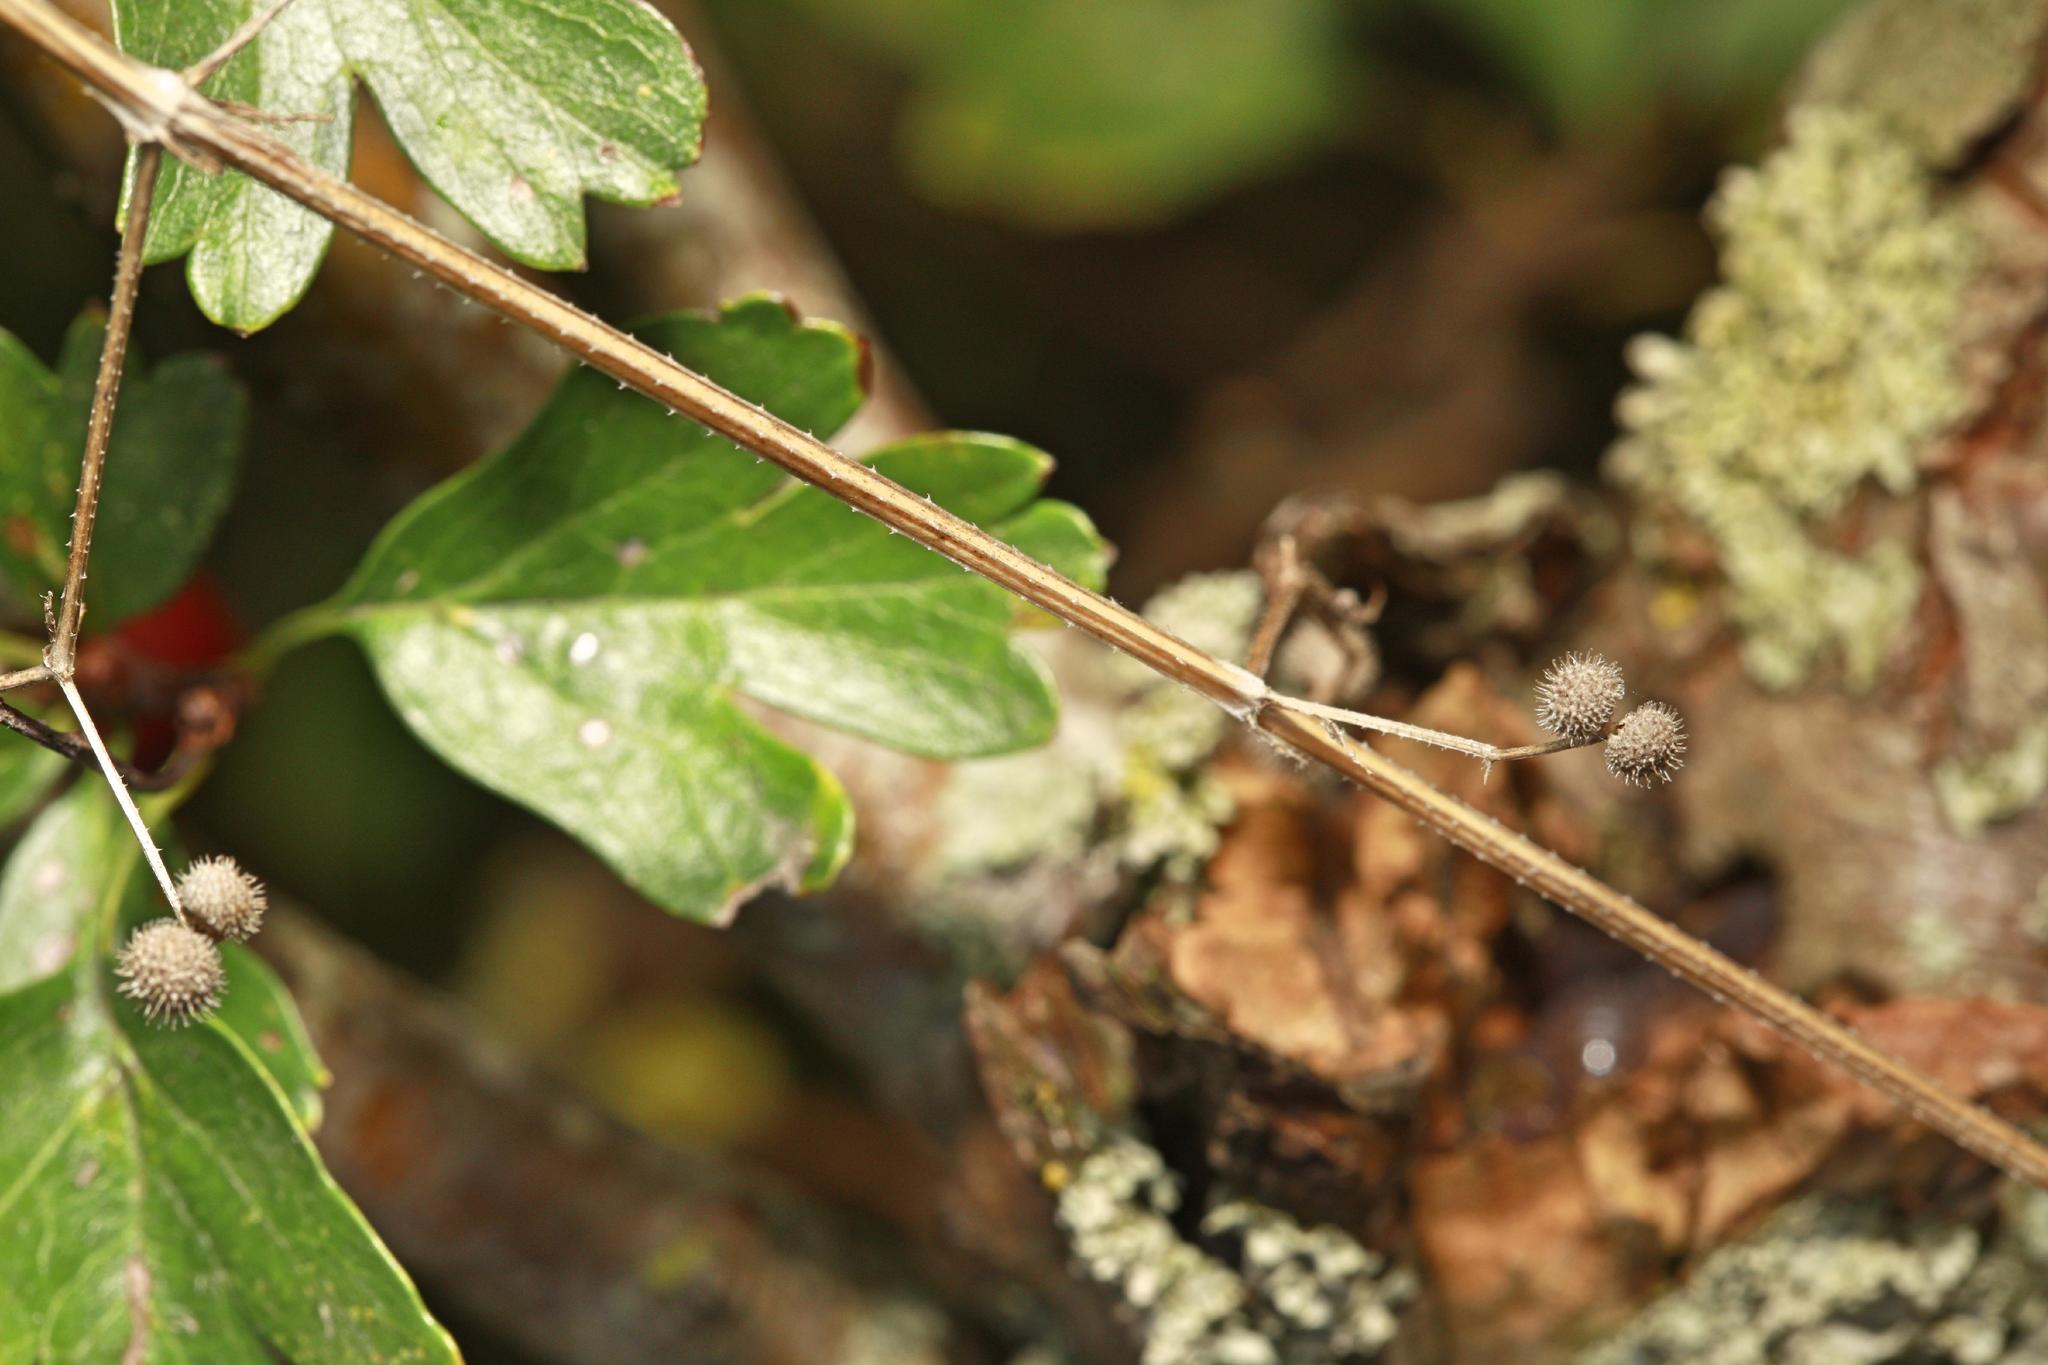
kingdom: Plantae
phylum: Tracheophyta
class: Magnoliopsida
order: Gentianales
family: Rubiaceae
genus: Galium
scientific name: Galium aparine
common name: Cleavers
